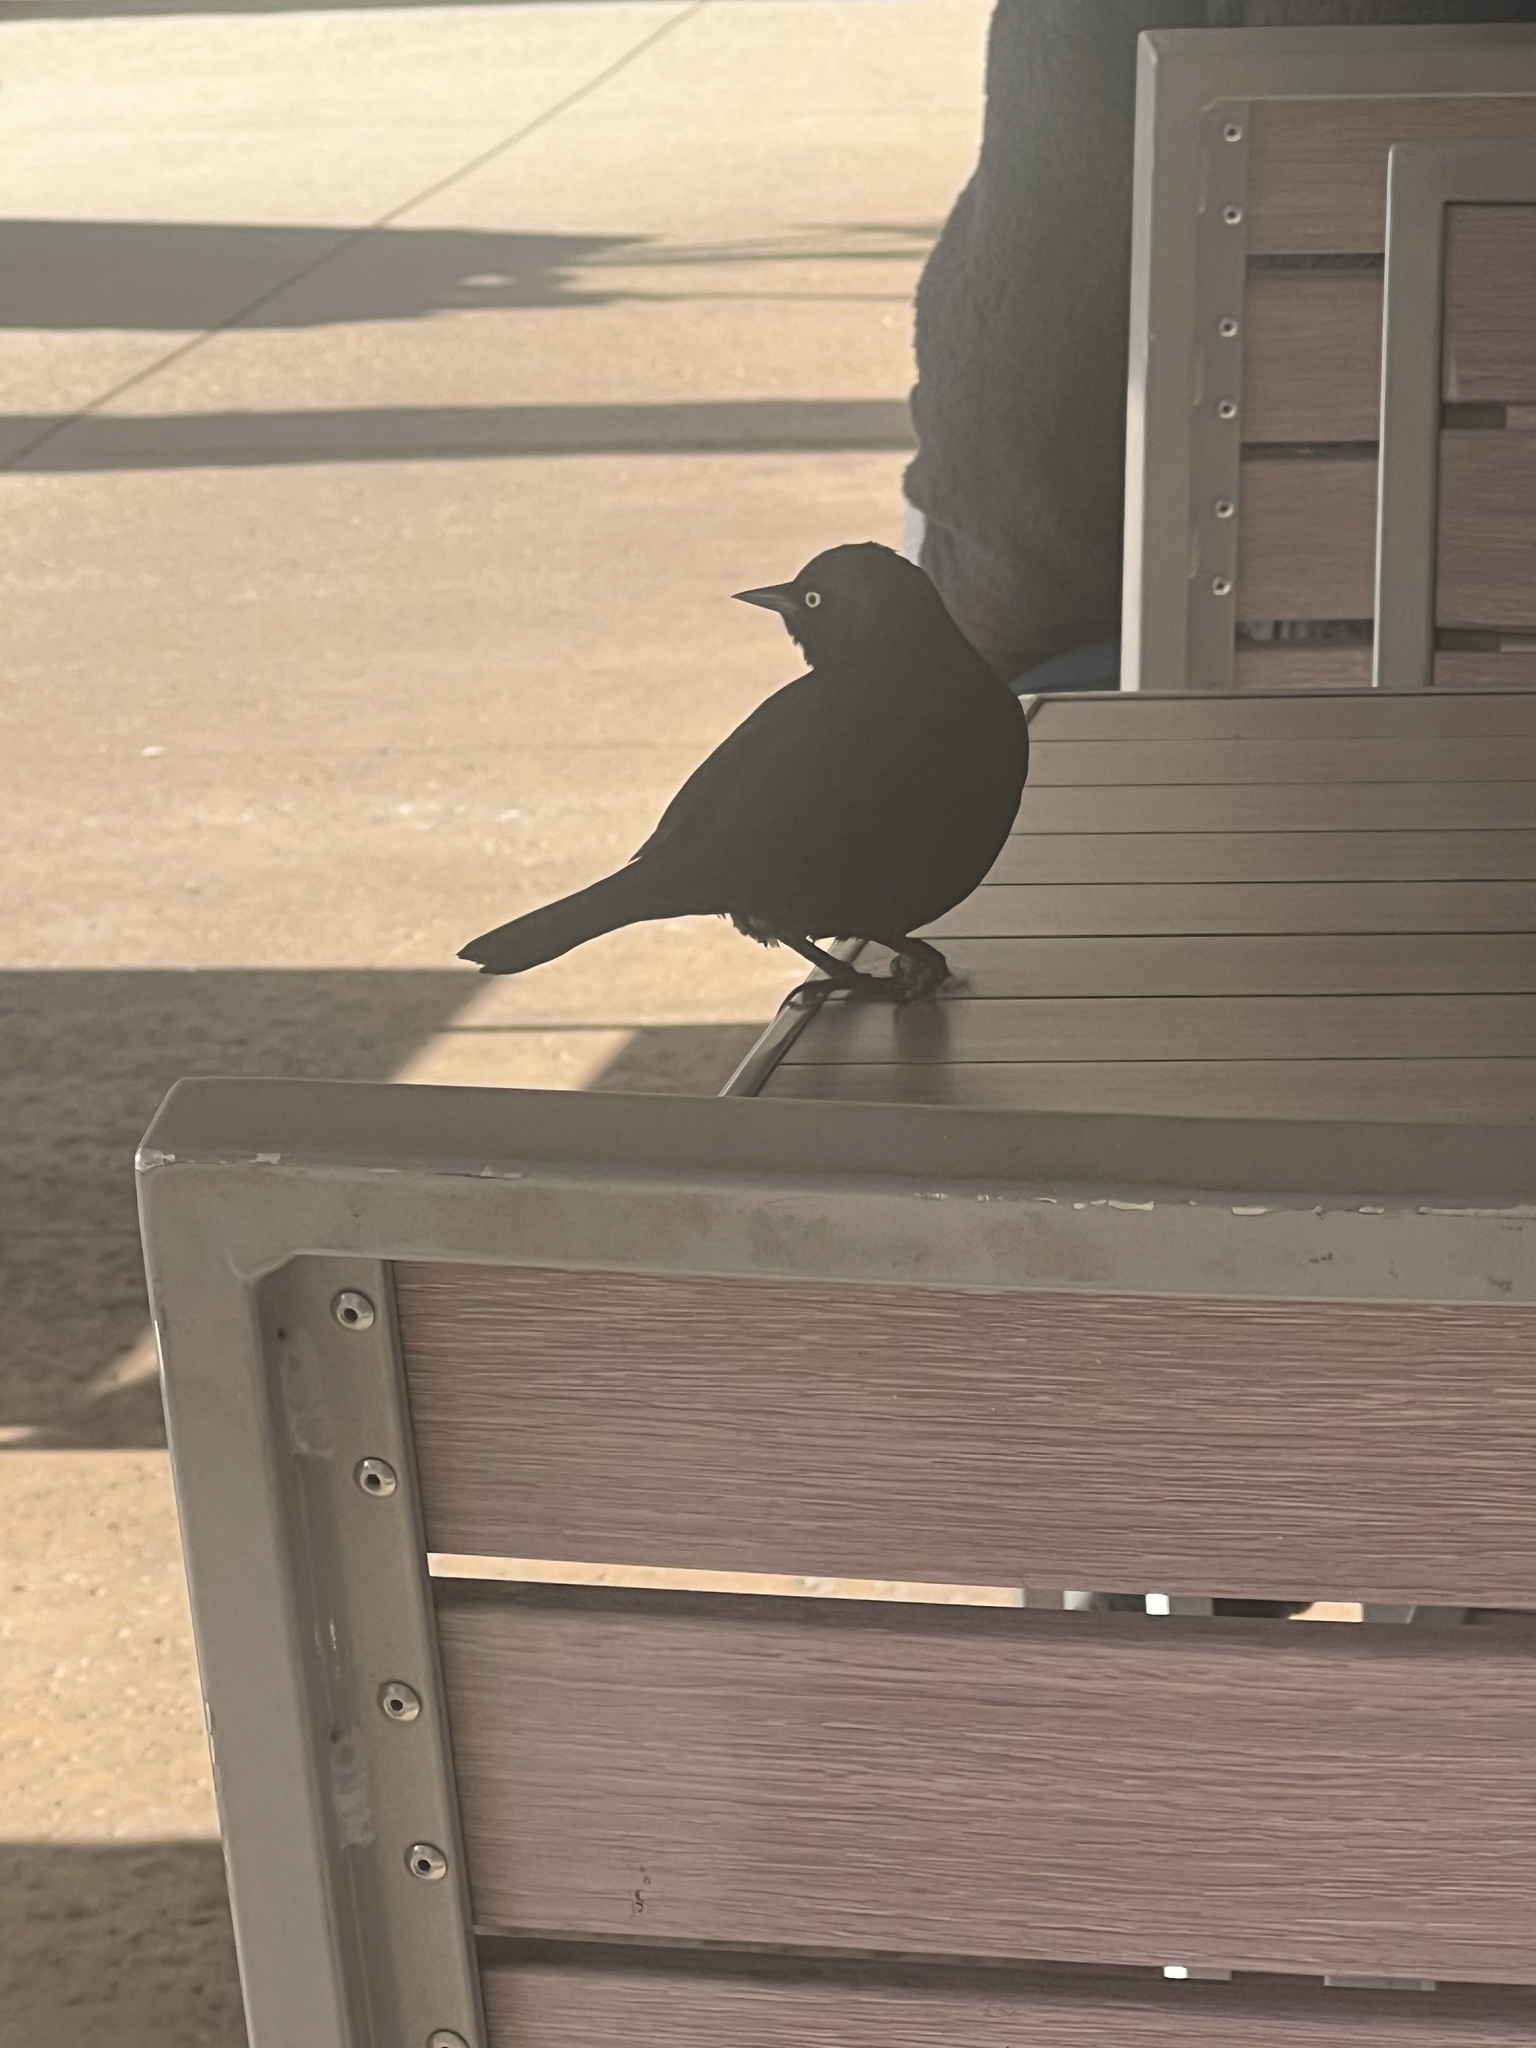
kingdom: Animalia
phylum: Chordata
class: Aves
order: Passeriformes
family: Icteridae
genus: Euphagus
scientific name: Euphagus cyanocephalus
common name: Brewer's blackbird
